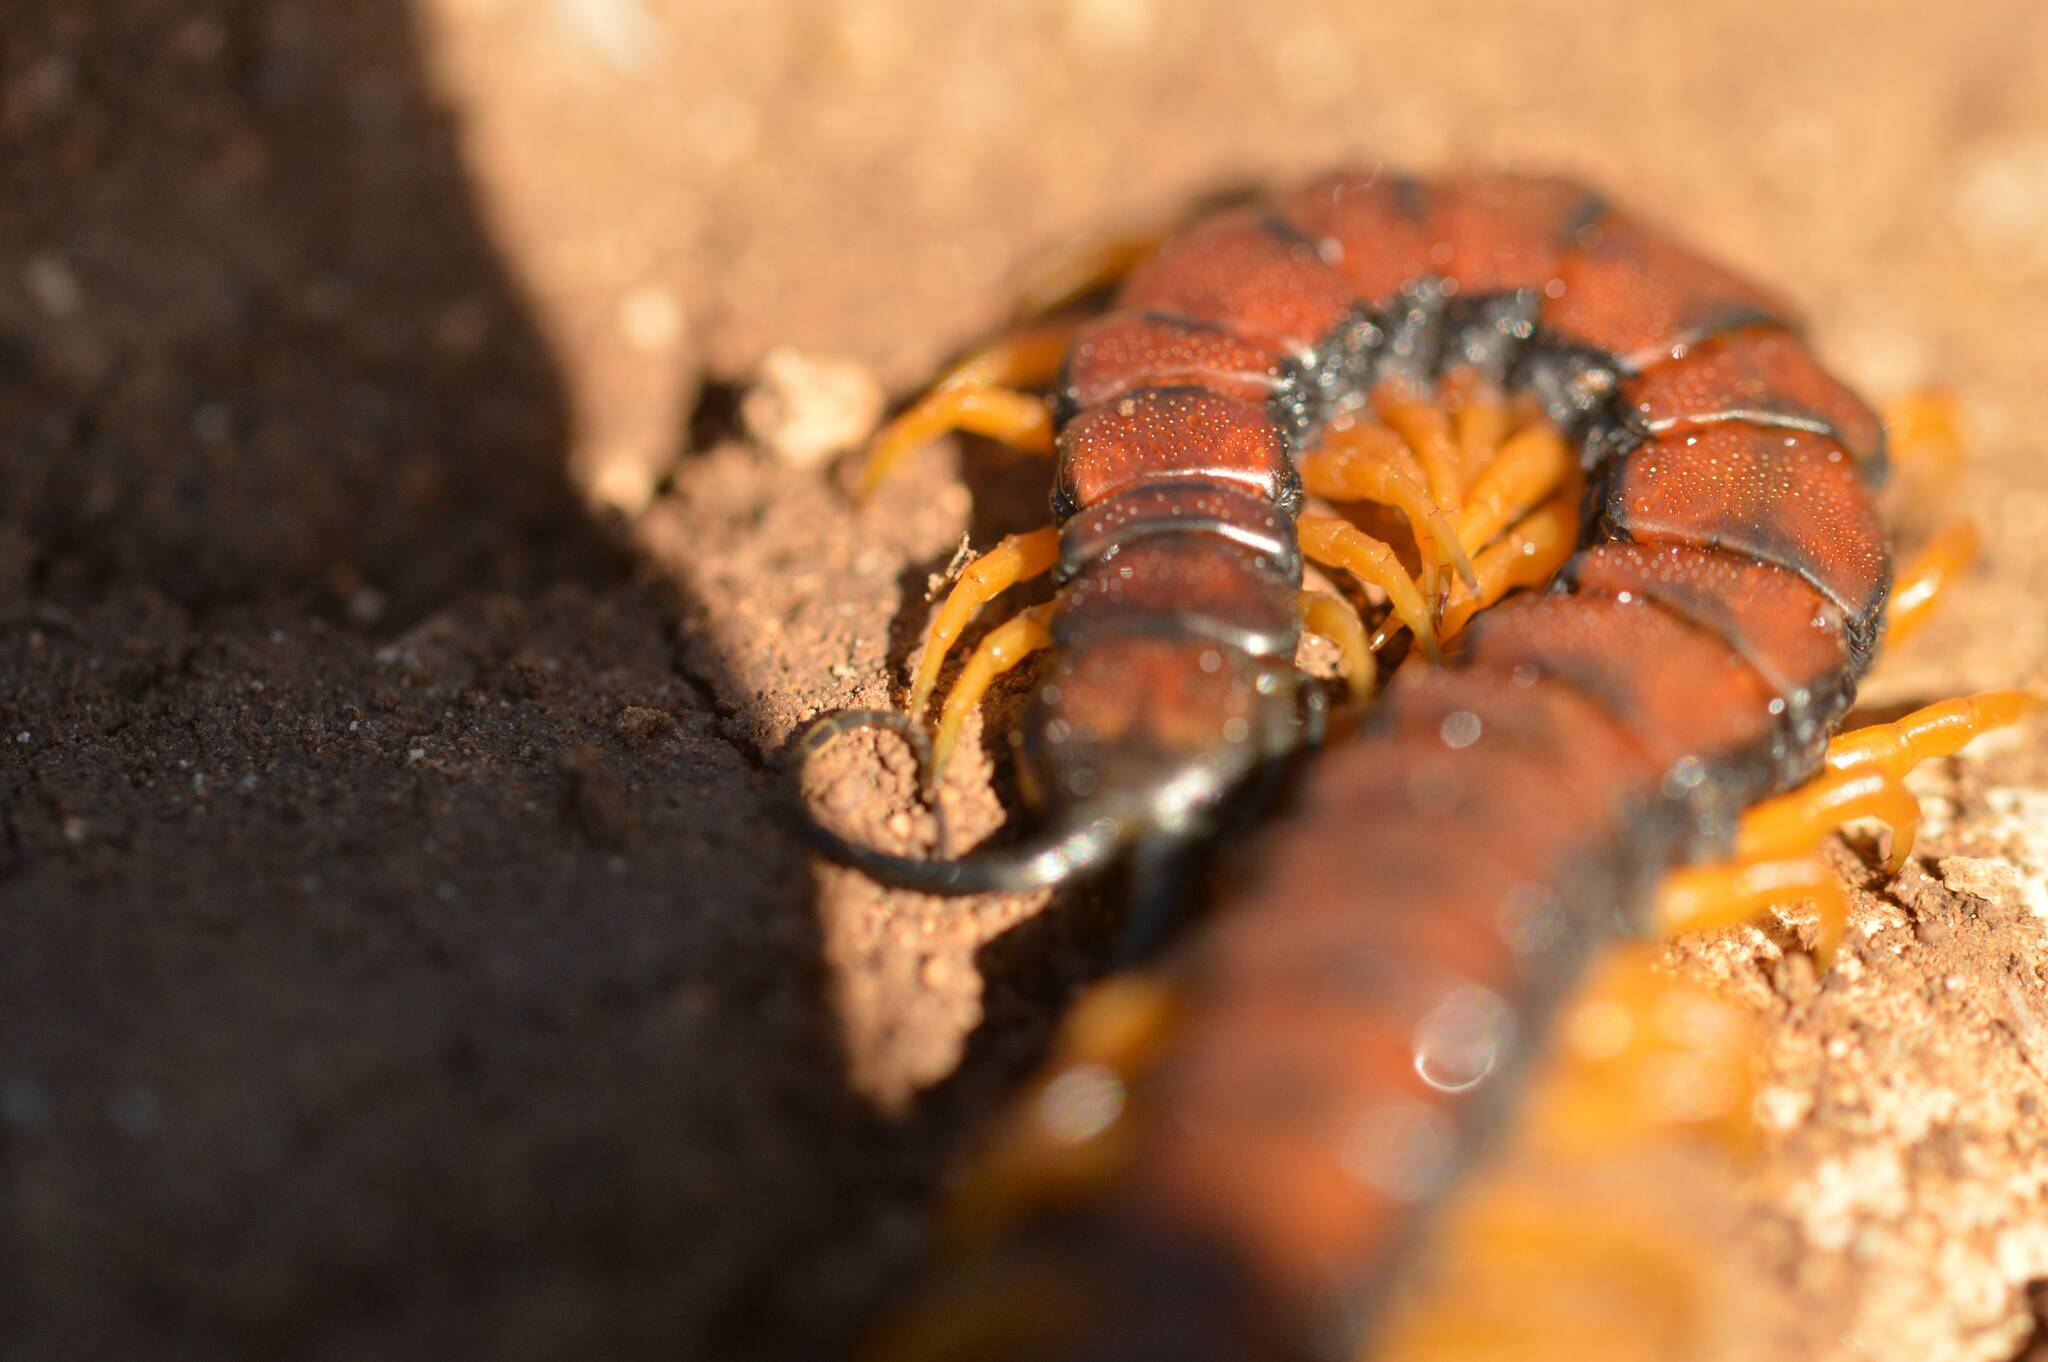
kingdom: Animalia
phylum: Arthropoda
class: Chilopoda
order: Scolopendromorpha
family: Scolopendridae
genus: Scolopendra
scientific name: Scolopendra cingulata
